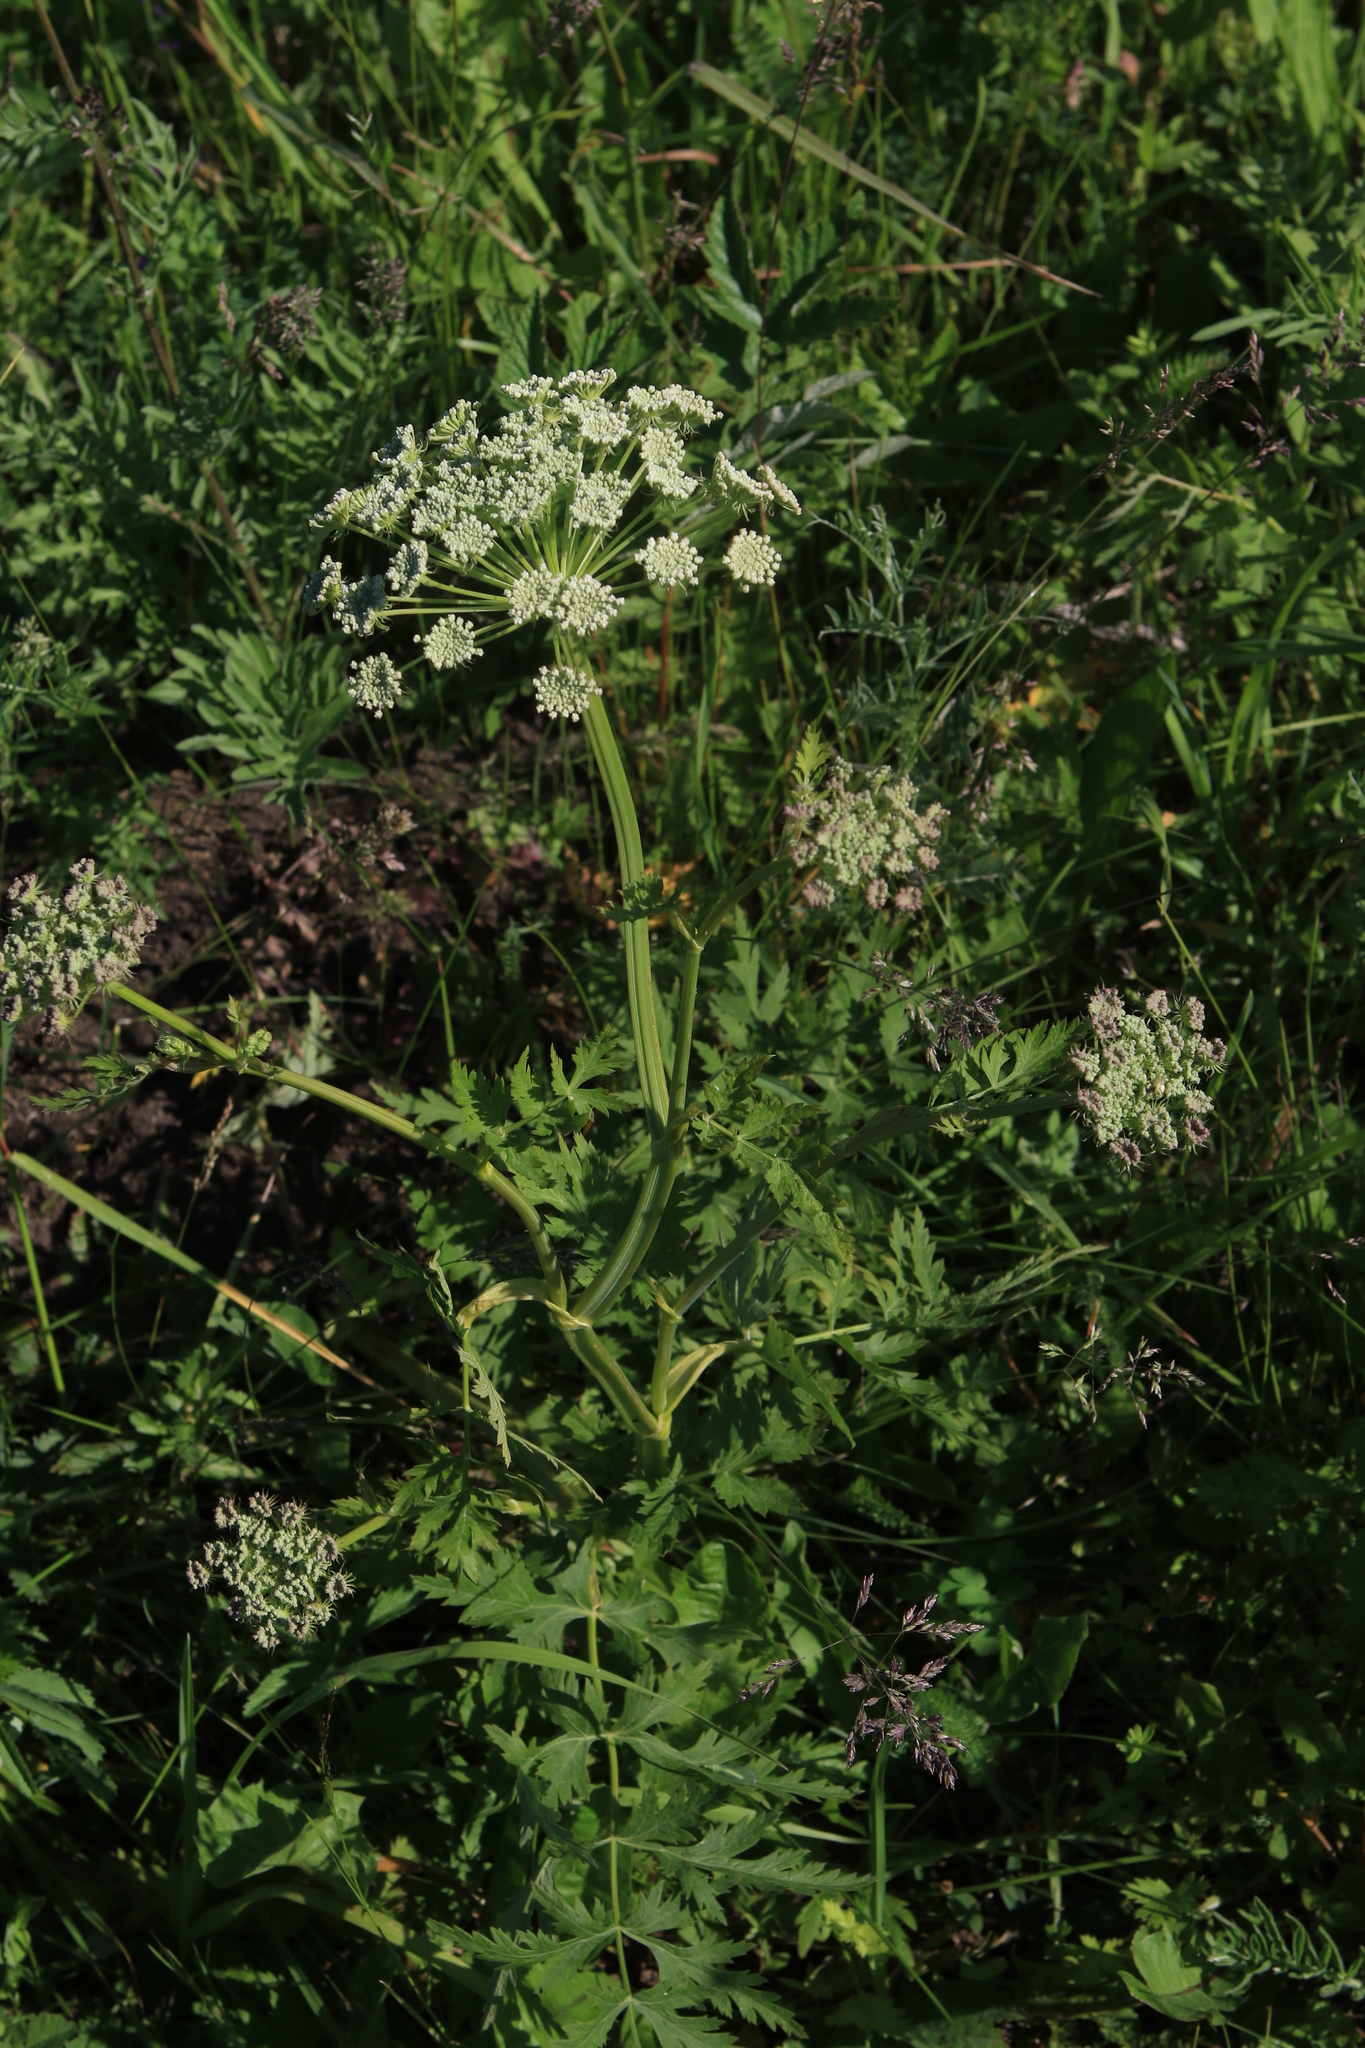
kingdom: Plantae
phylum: Tracheophyta
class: Magnoliopsida
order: Apiales
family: Apiaceae
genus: Seseli
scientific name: Seseli libanotis
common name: Mooncarrot
